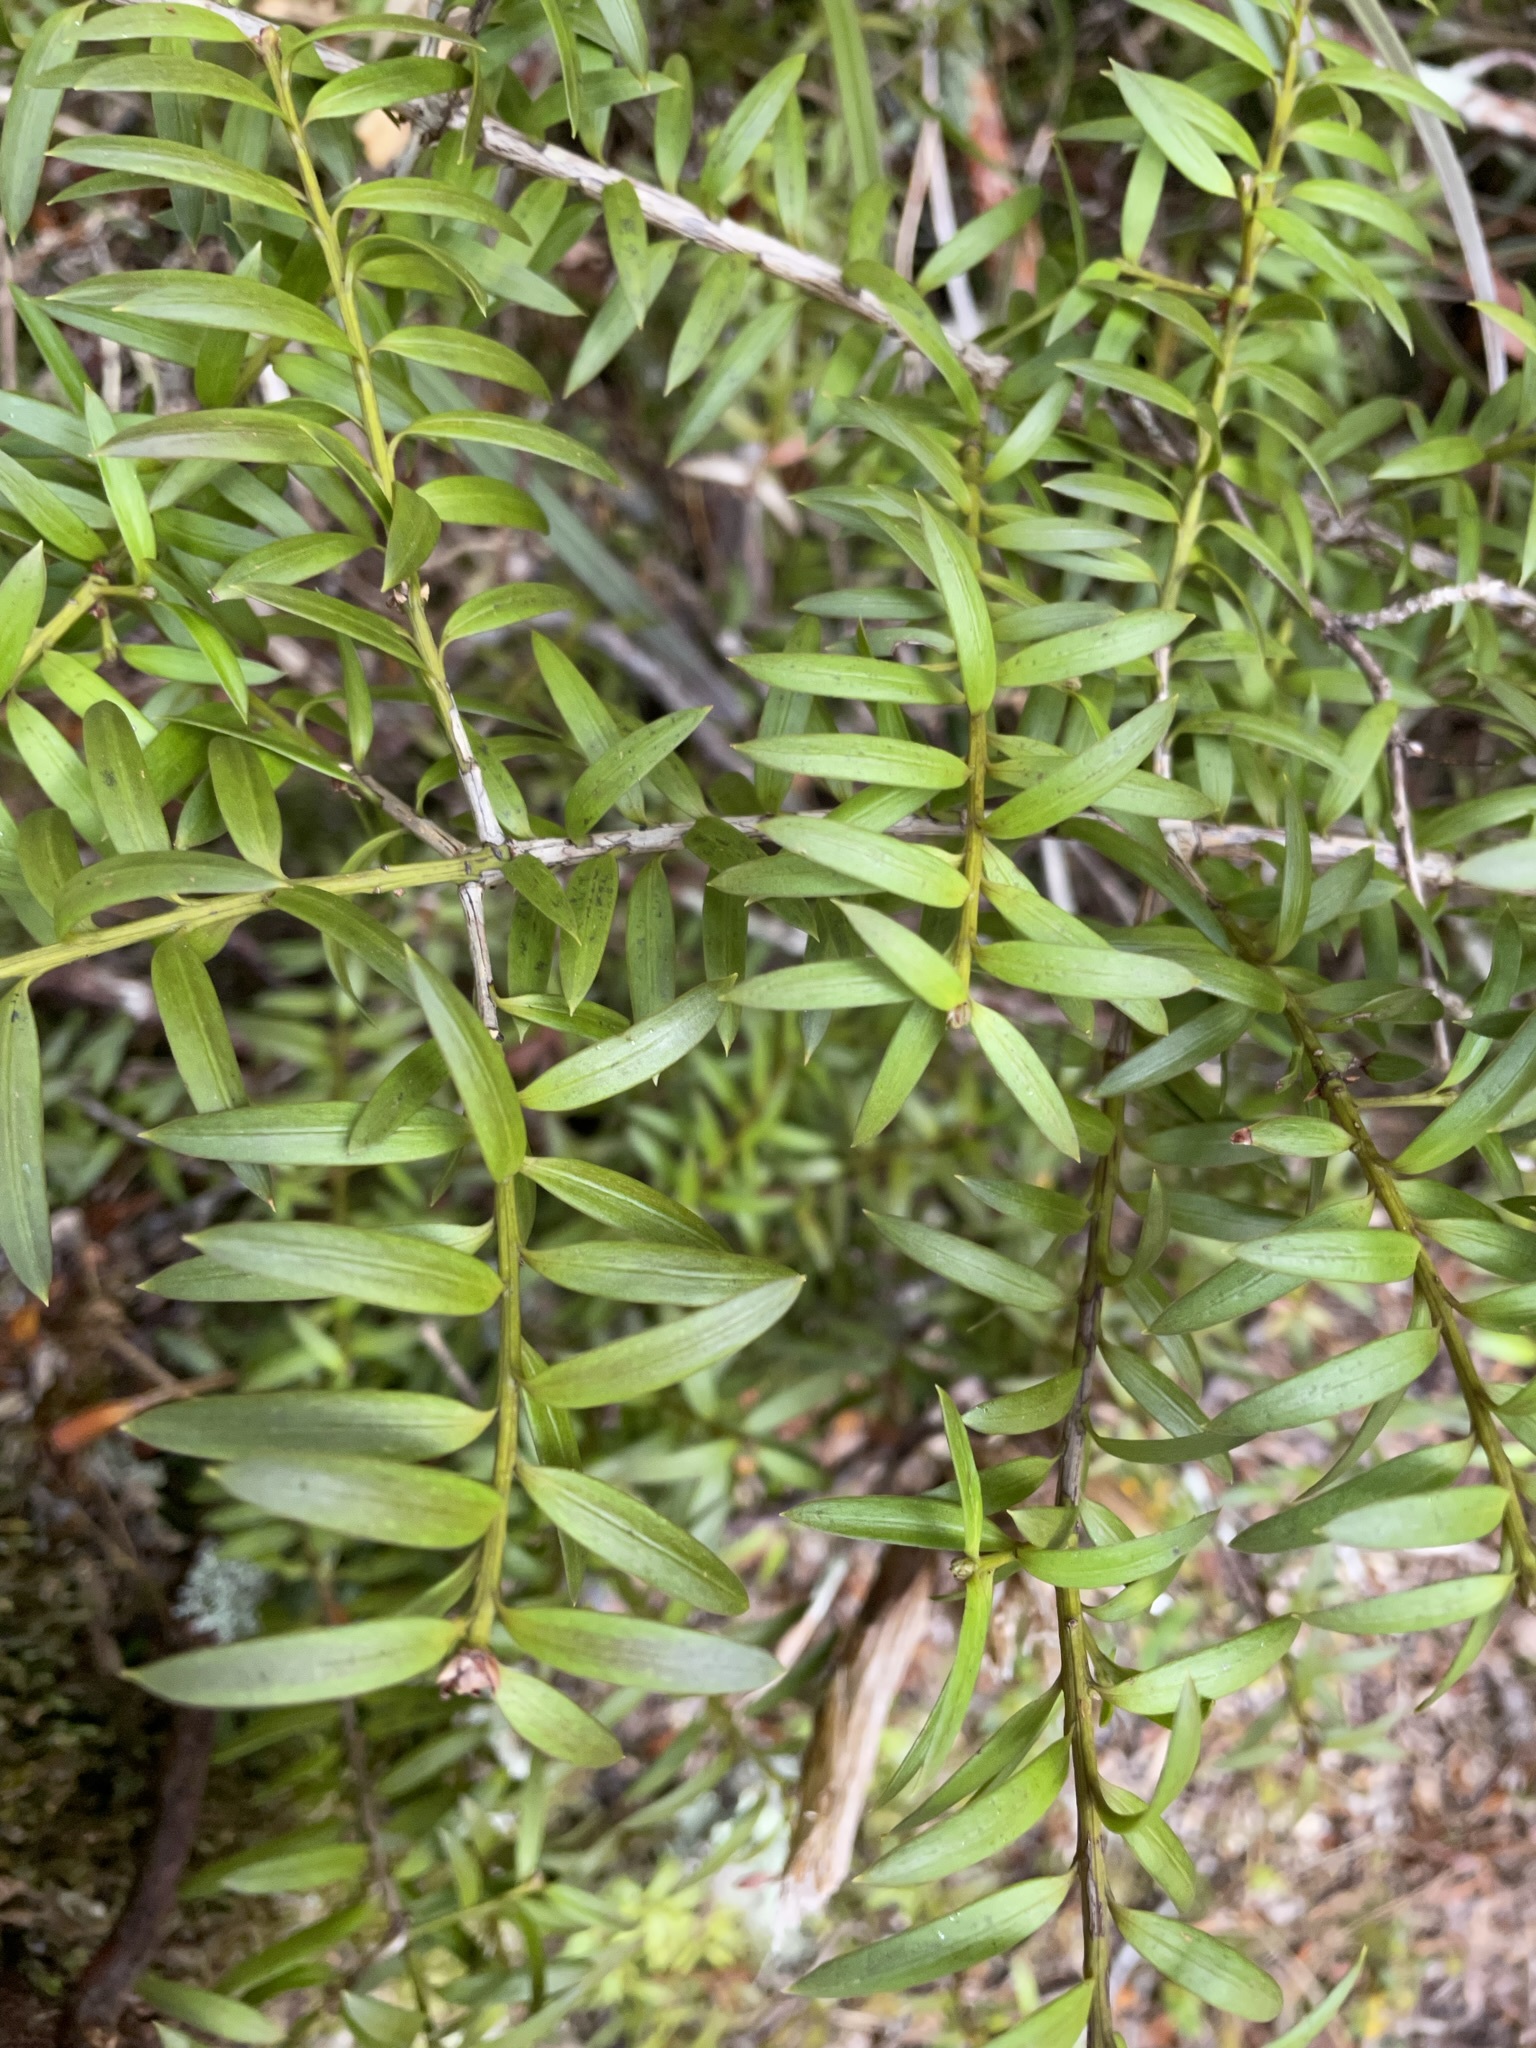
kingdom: Plantae
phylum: Tracheophyta
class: Pinopsida
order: Pinales
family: Podocarpaceae
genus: Podocarpus
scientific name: Podocarpus laetus
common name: Hall's totara
